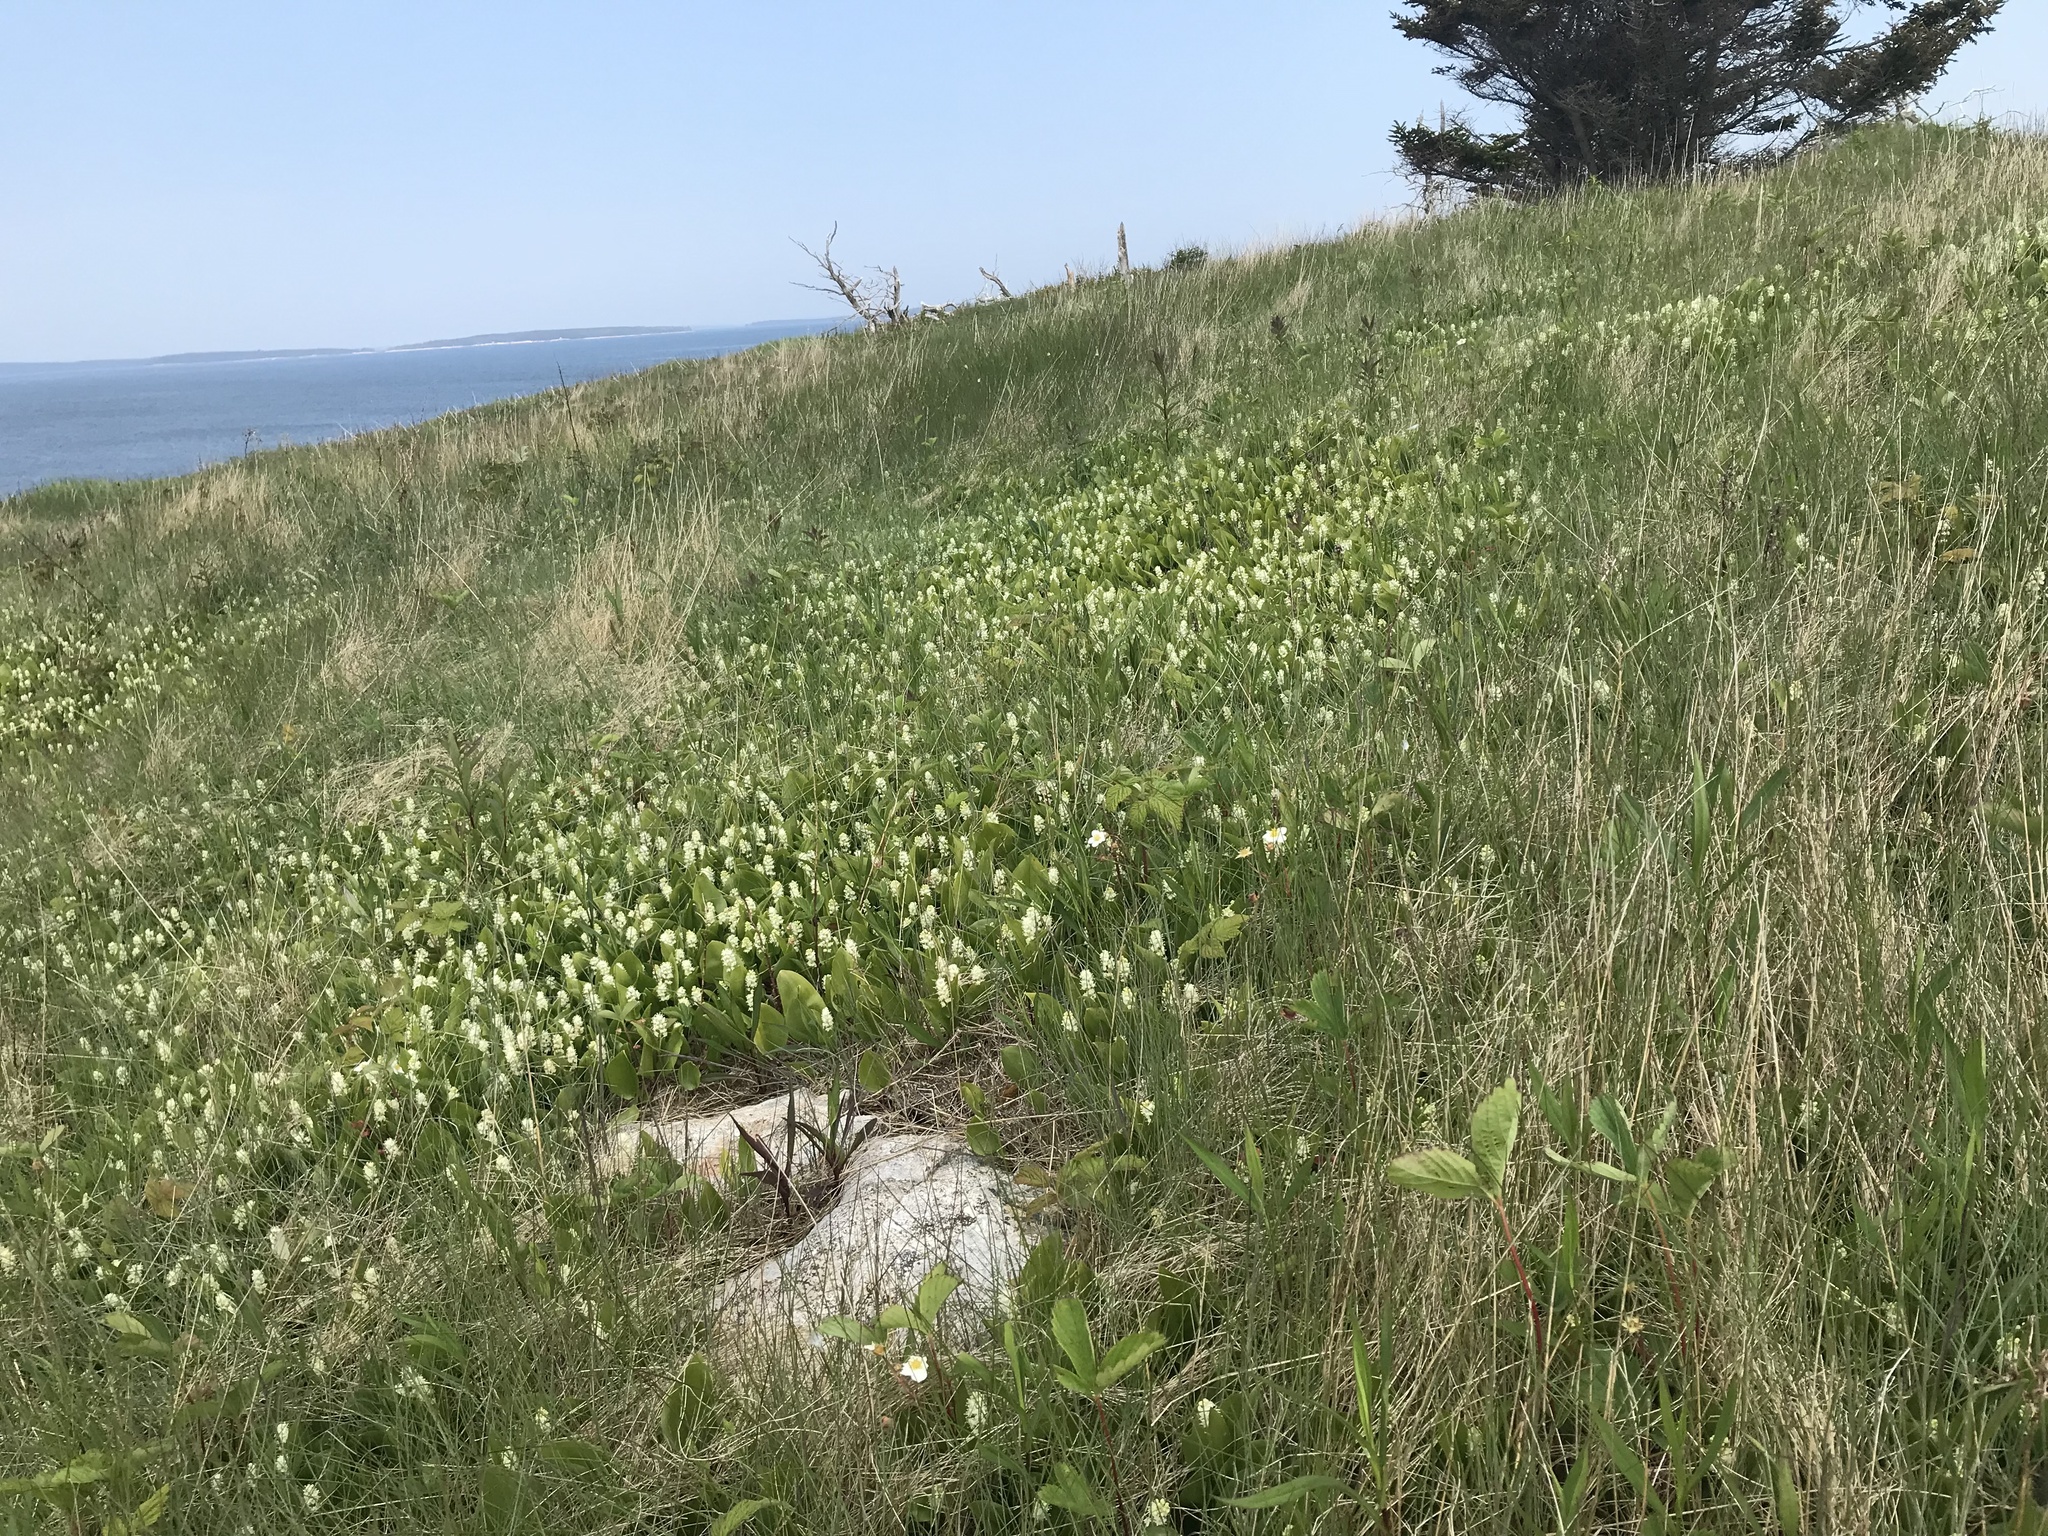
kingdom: Plantae
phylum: Tracheophyta
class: Liliopsida
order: Asparagales
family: Asparagaceae
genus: Maianthemum
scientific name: Maianthemum canadense
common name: False lily-of-the-valley
